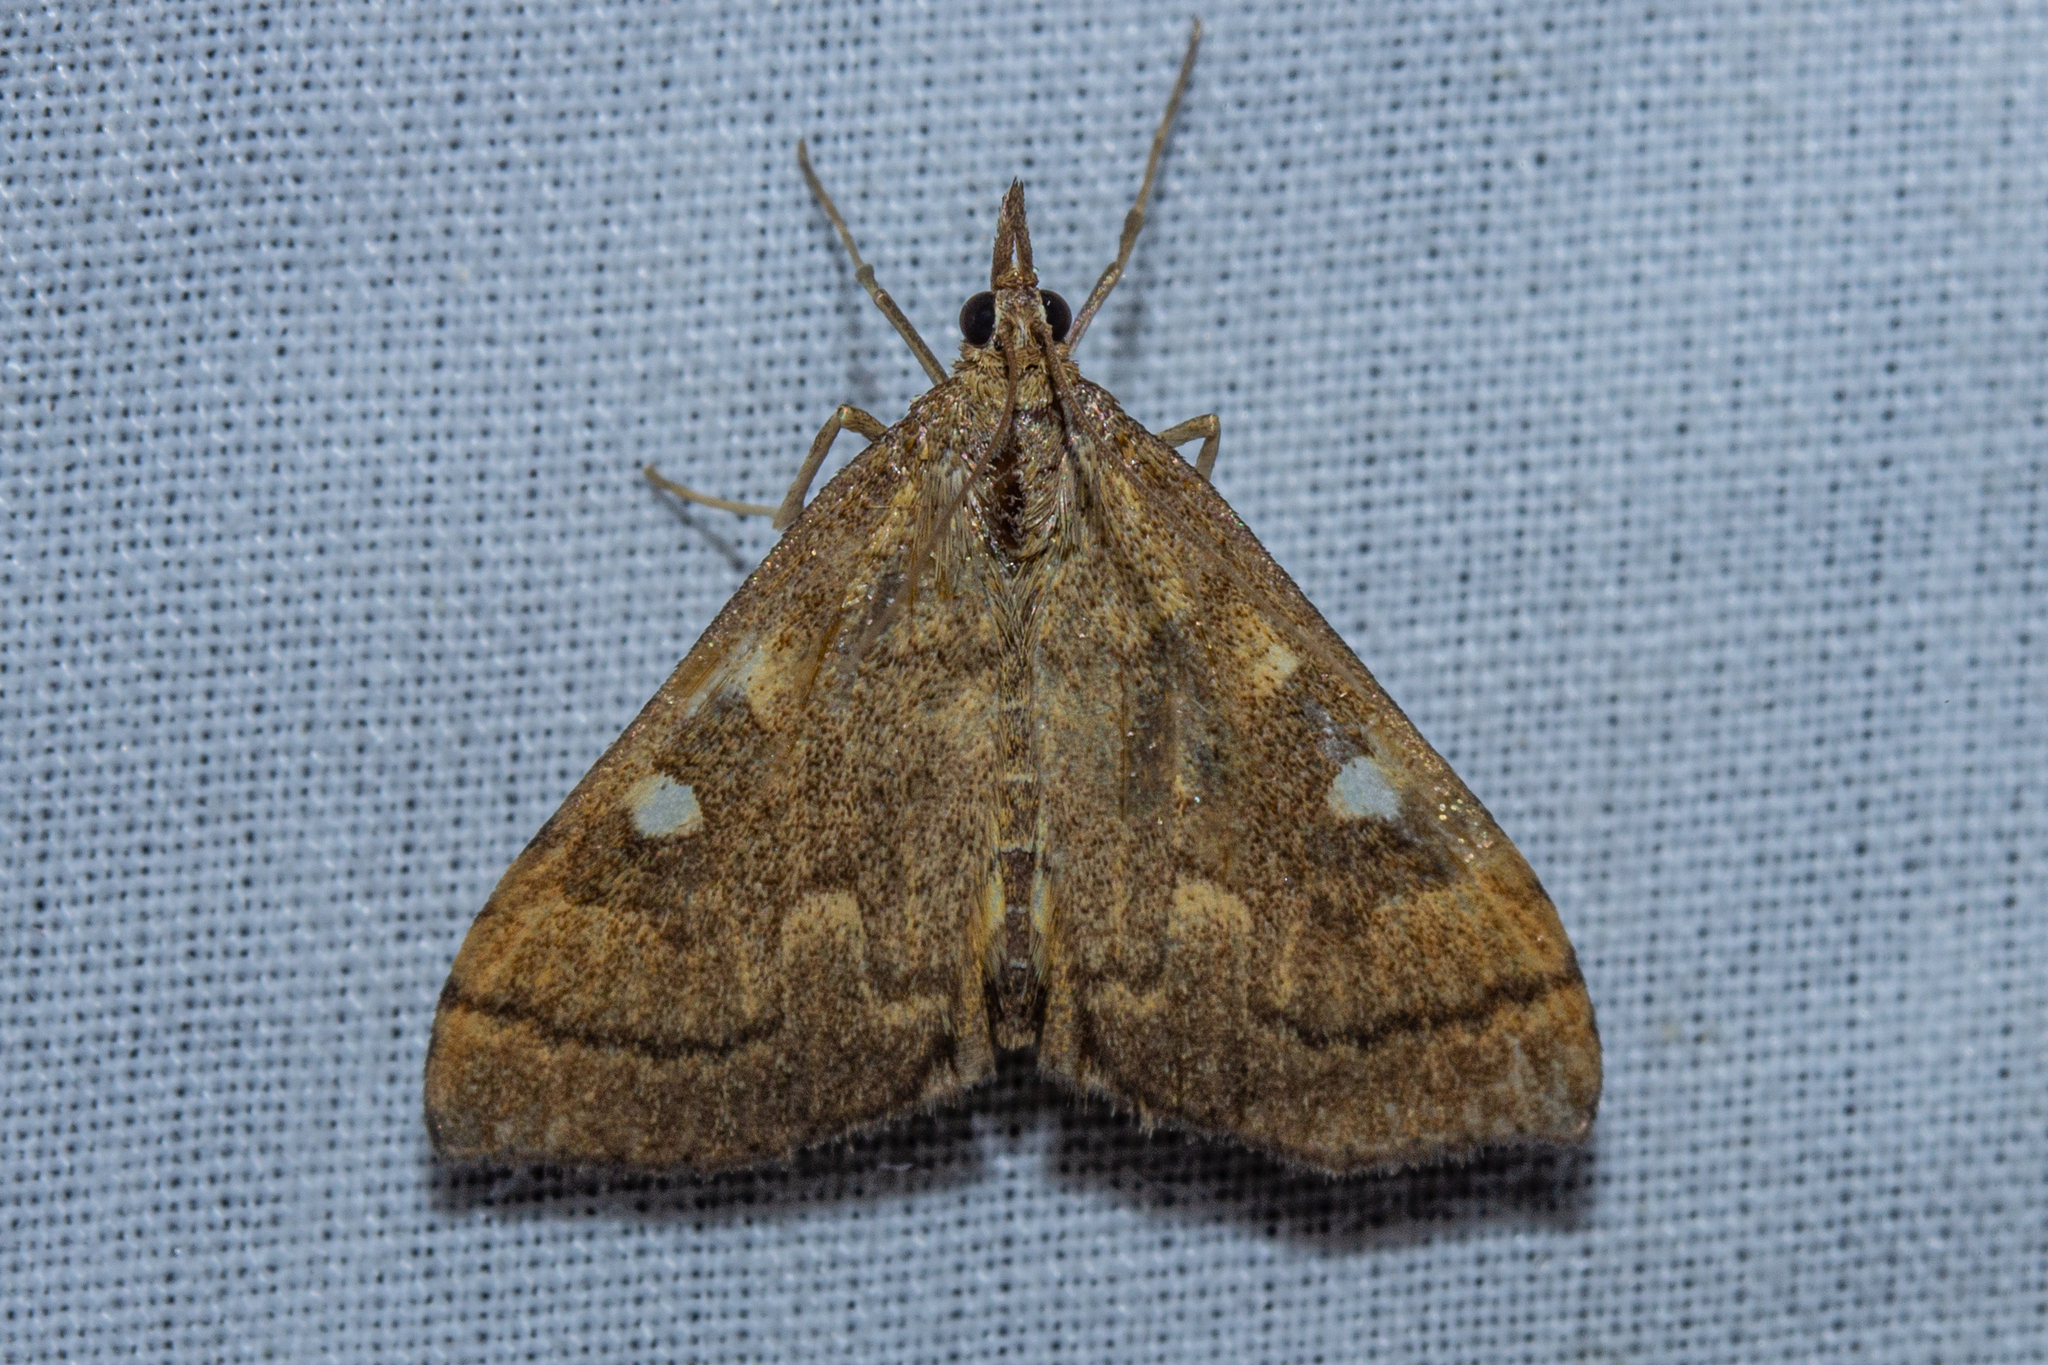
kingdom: Animalia
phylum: Arthropoda
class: Insecta
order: Lepidoptera
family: Crambidae
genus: Udea
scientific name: Udea marmarina
